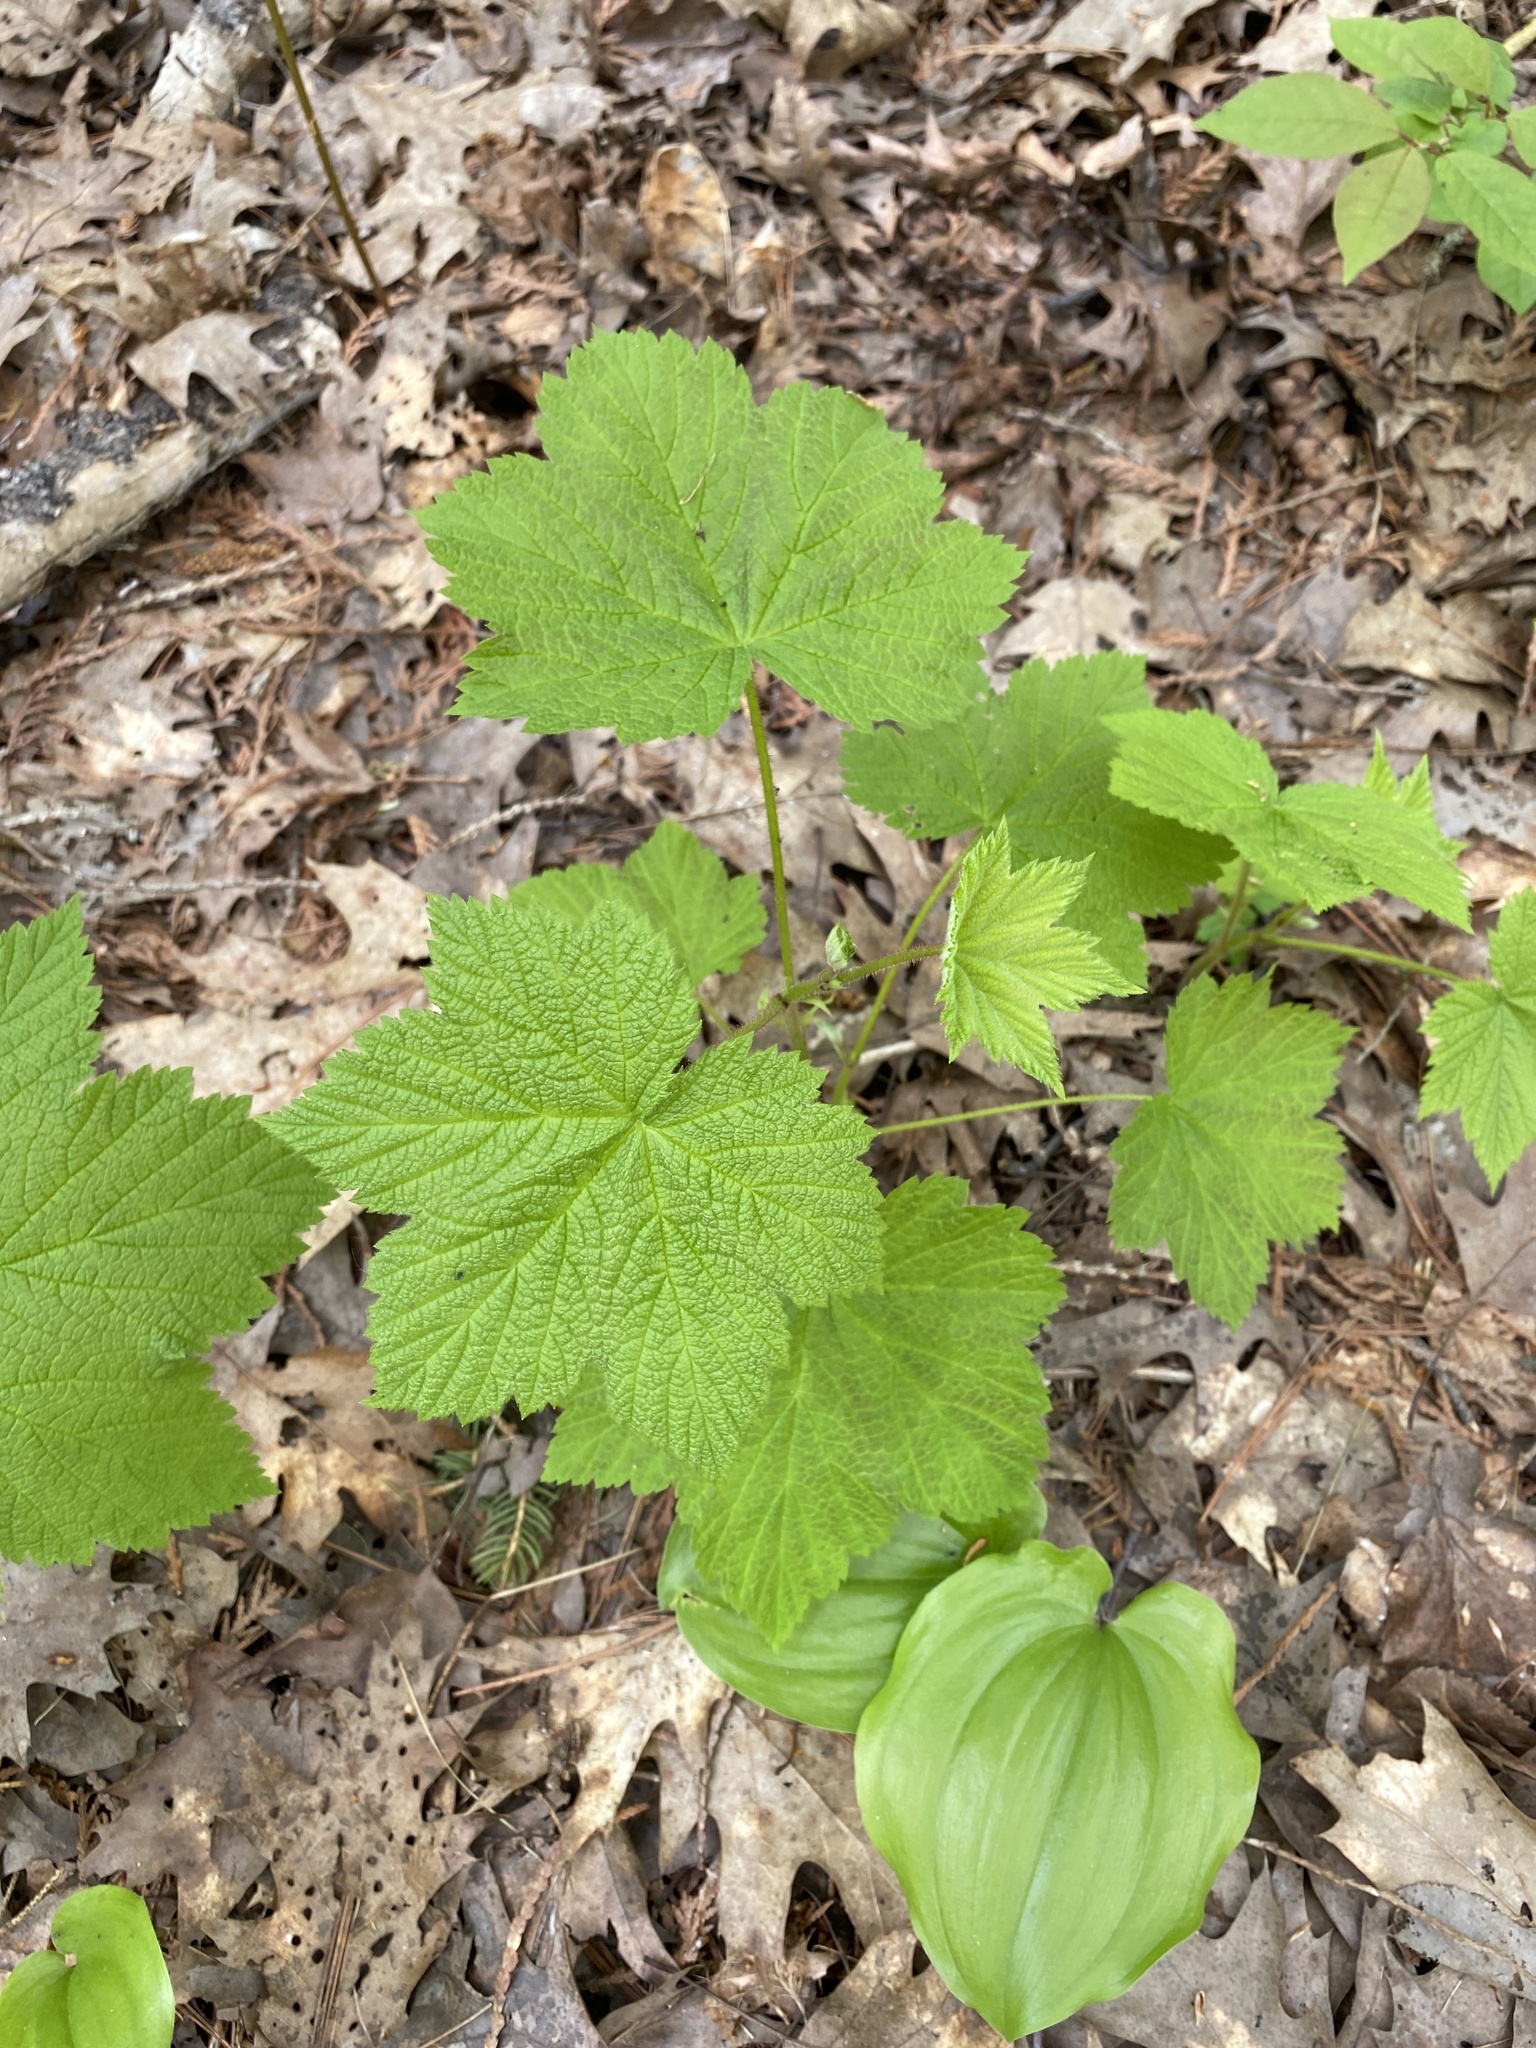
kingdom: Plantae
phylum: Tracheophyta
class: Magnoliopsida
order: Rosales
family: Rosaceae
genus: Rubus
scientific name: Rubus parviflorus
